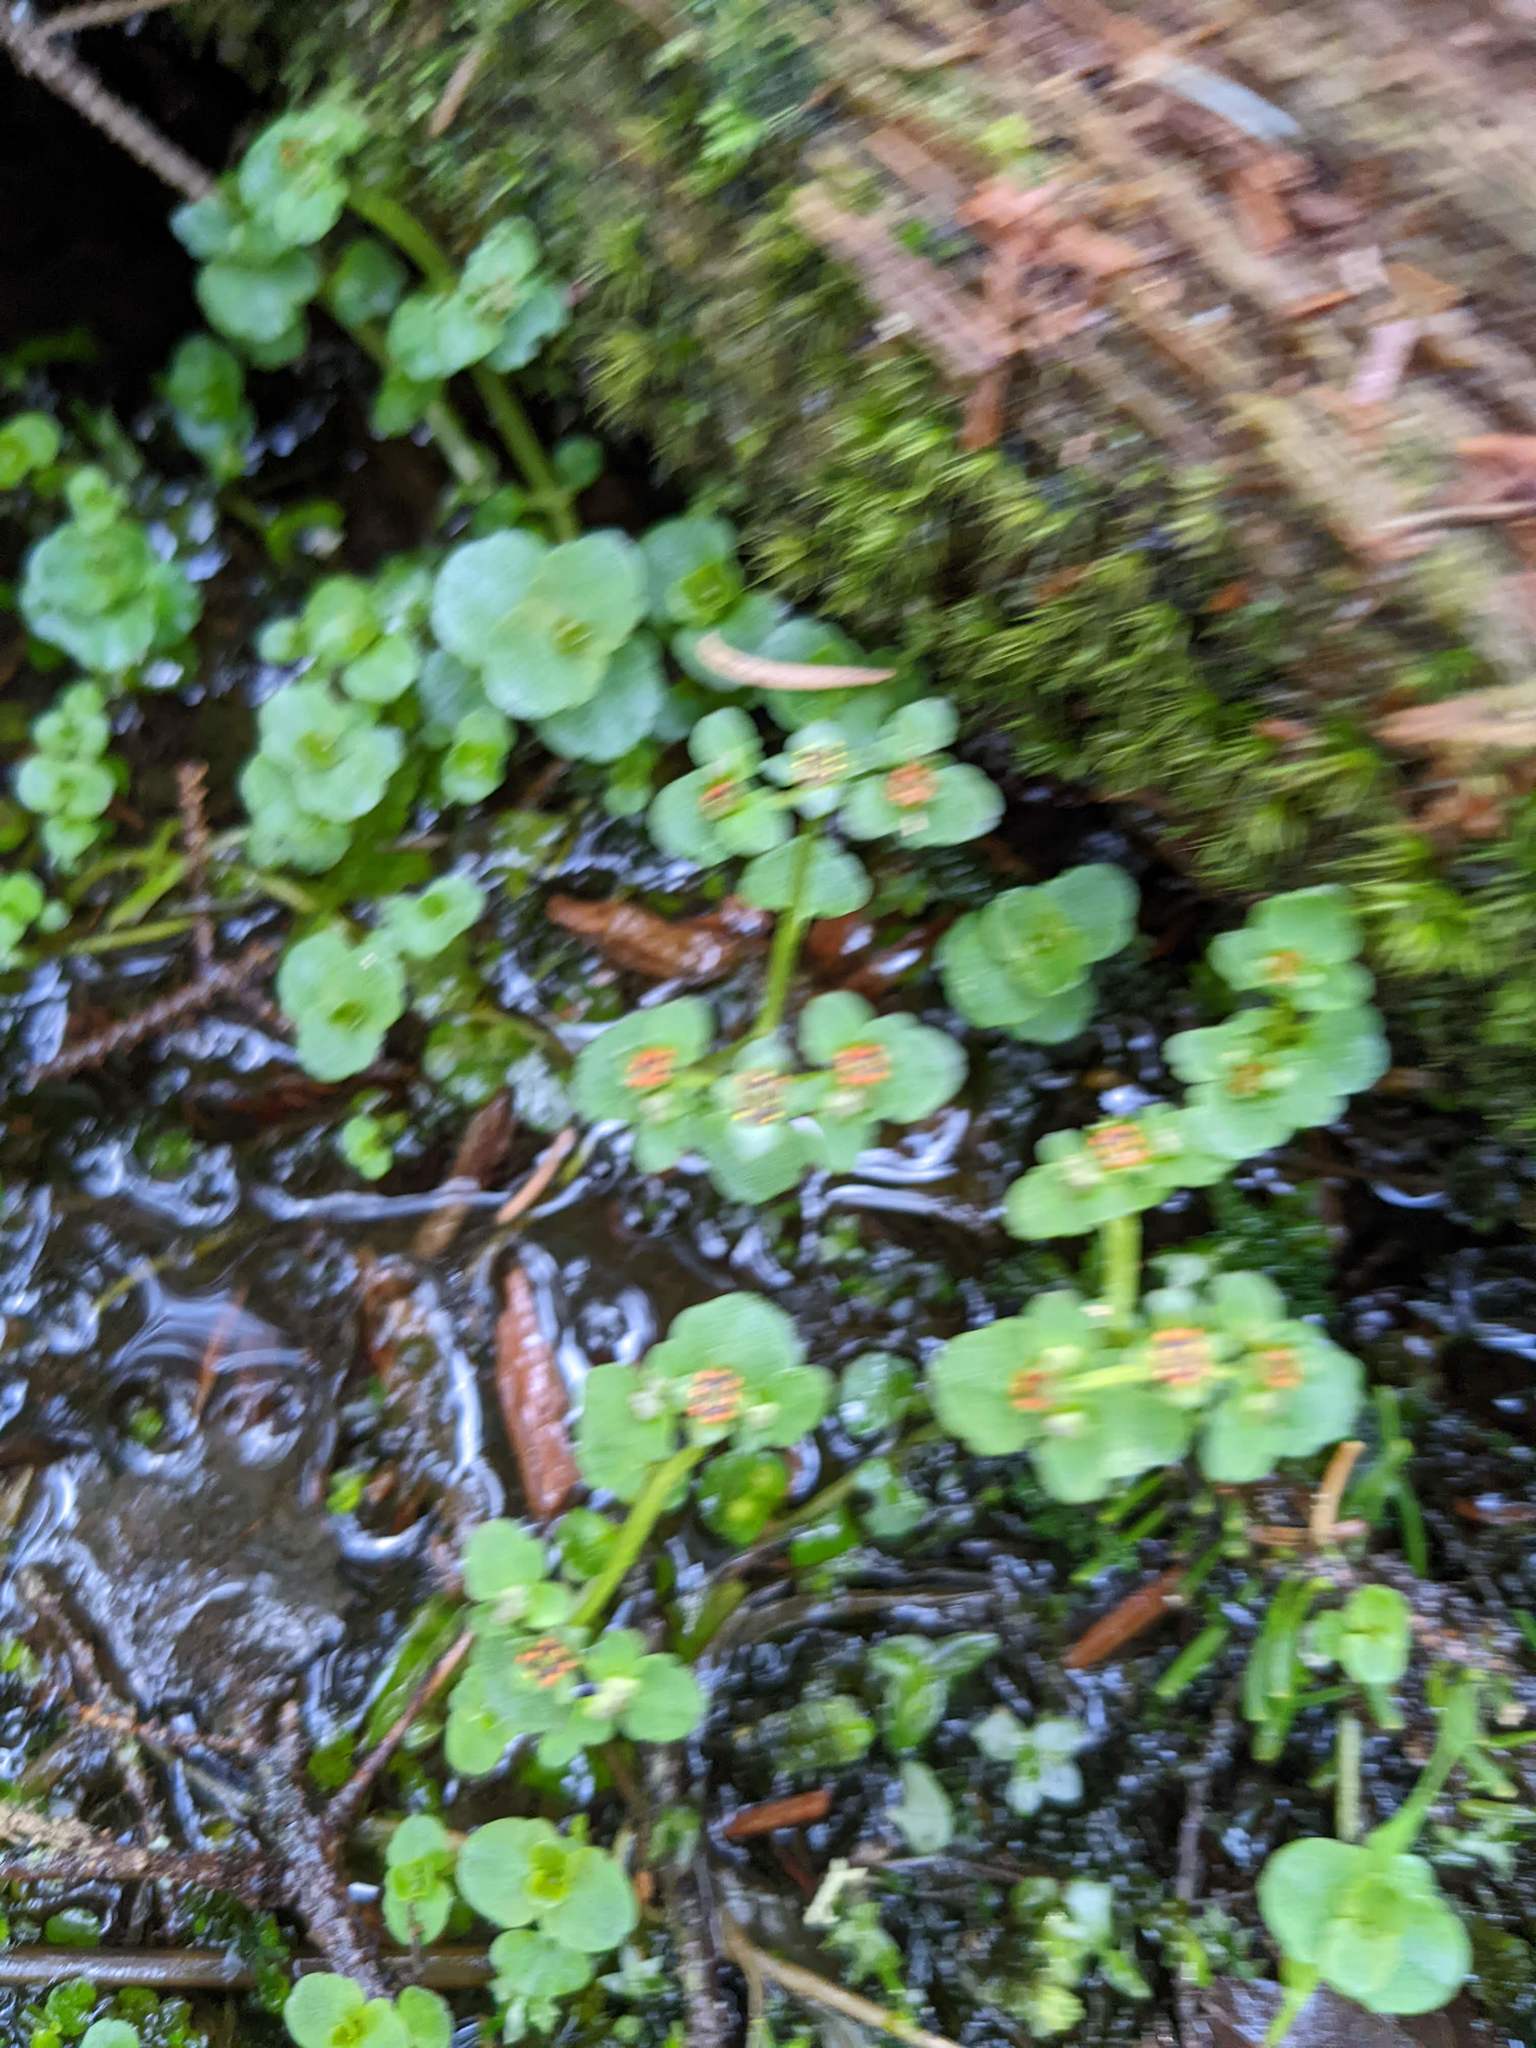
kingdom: Plantae
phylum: Tracheophyta
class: Magnoliopsida
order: Saxifragales
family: Saxifragaceae
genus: Chrysosplenium
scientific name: Chrysosplenium americanum
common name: American golden-saxifrage
